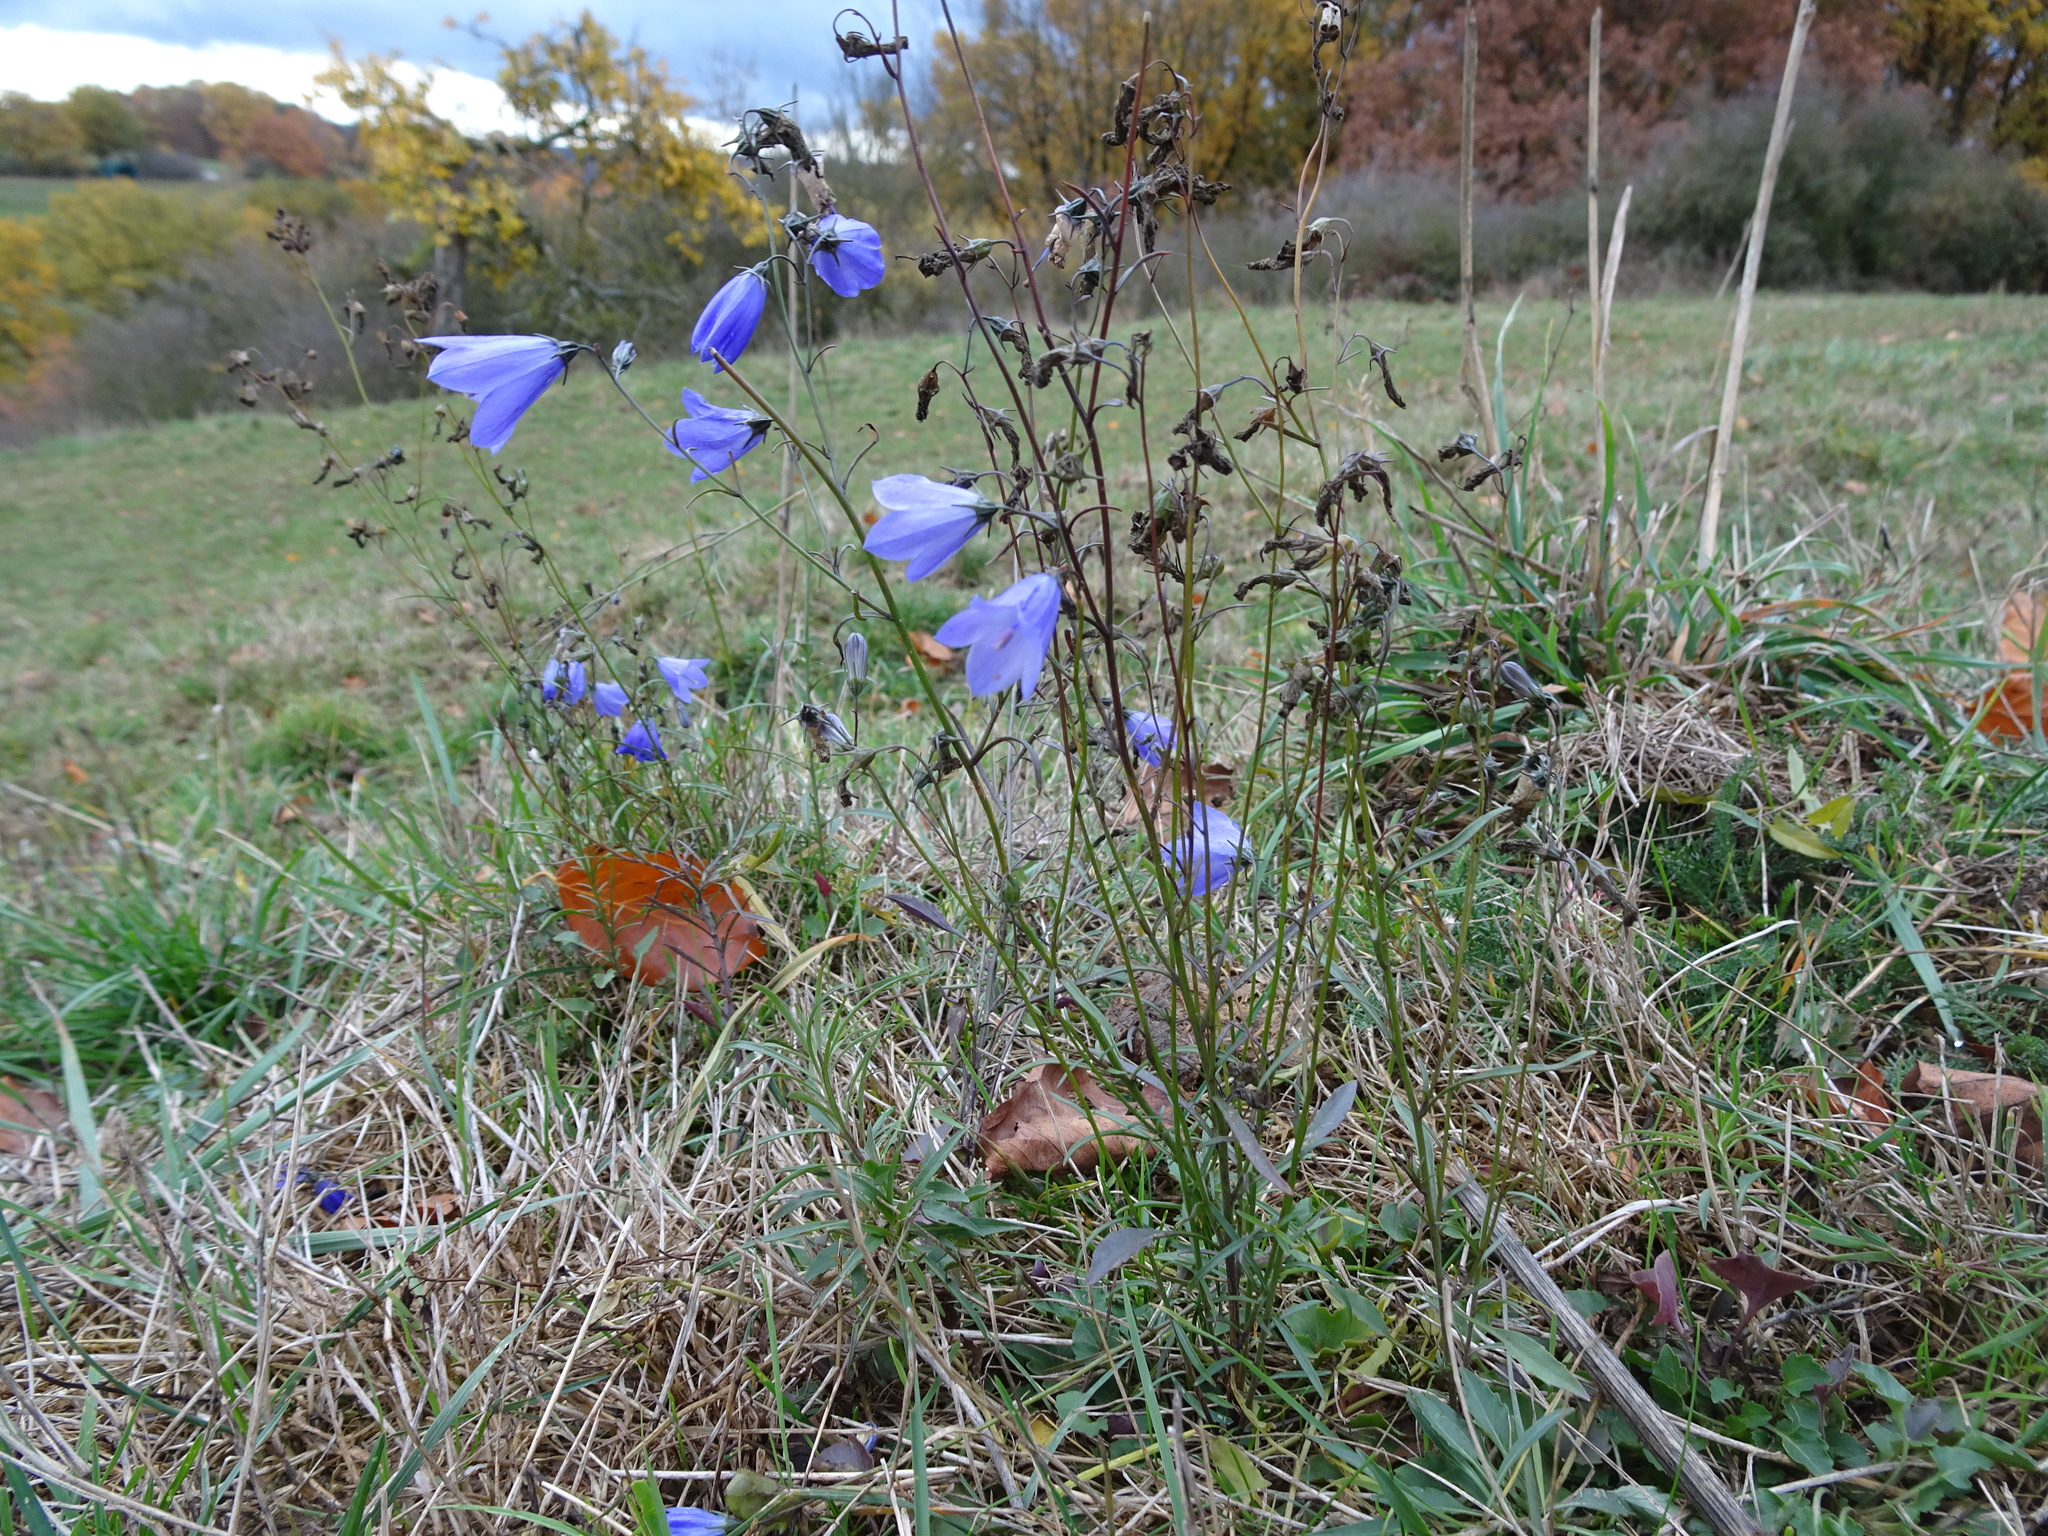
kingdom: Plantae
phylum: Tracheophyta
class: Magnoliopsida
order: Asterales
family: Campanulaceae
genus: Campanula
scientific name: Campanula rotundifolia
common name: Harebell
